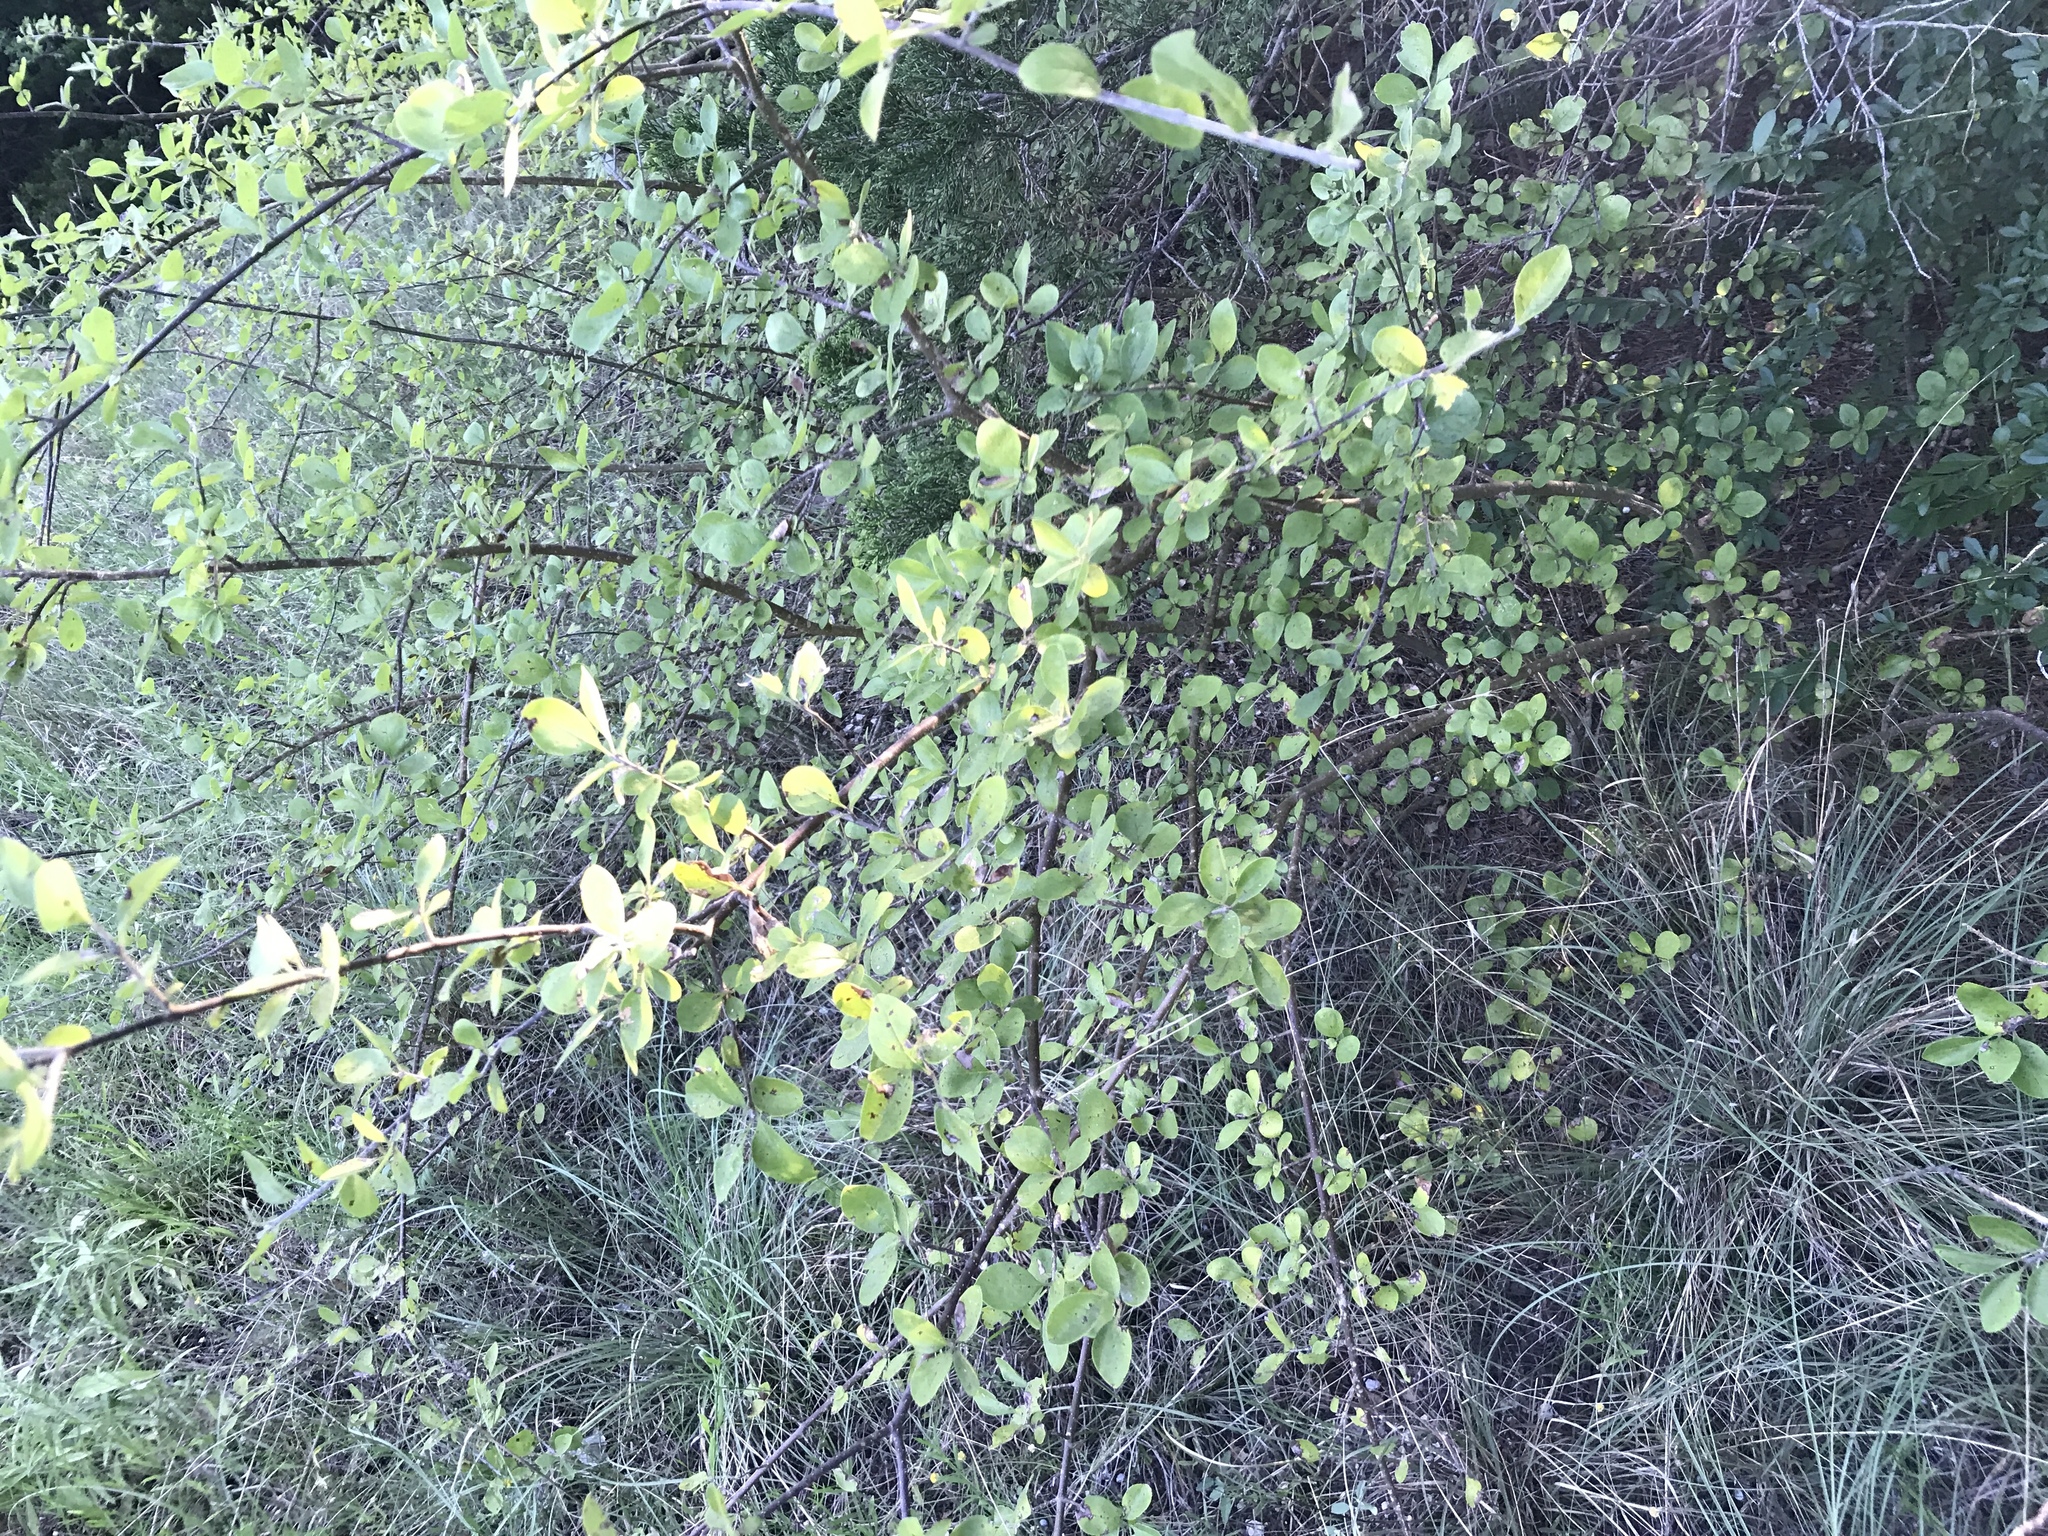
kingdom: Plantae
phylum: Tracheophyta
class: Magnoliopsida
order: Lamiales
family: Oleaceae
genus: Forestiera
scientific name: Forestiera pubescens
